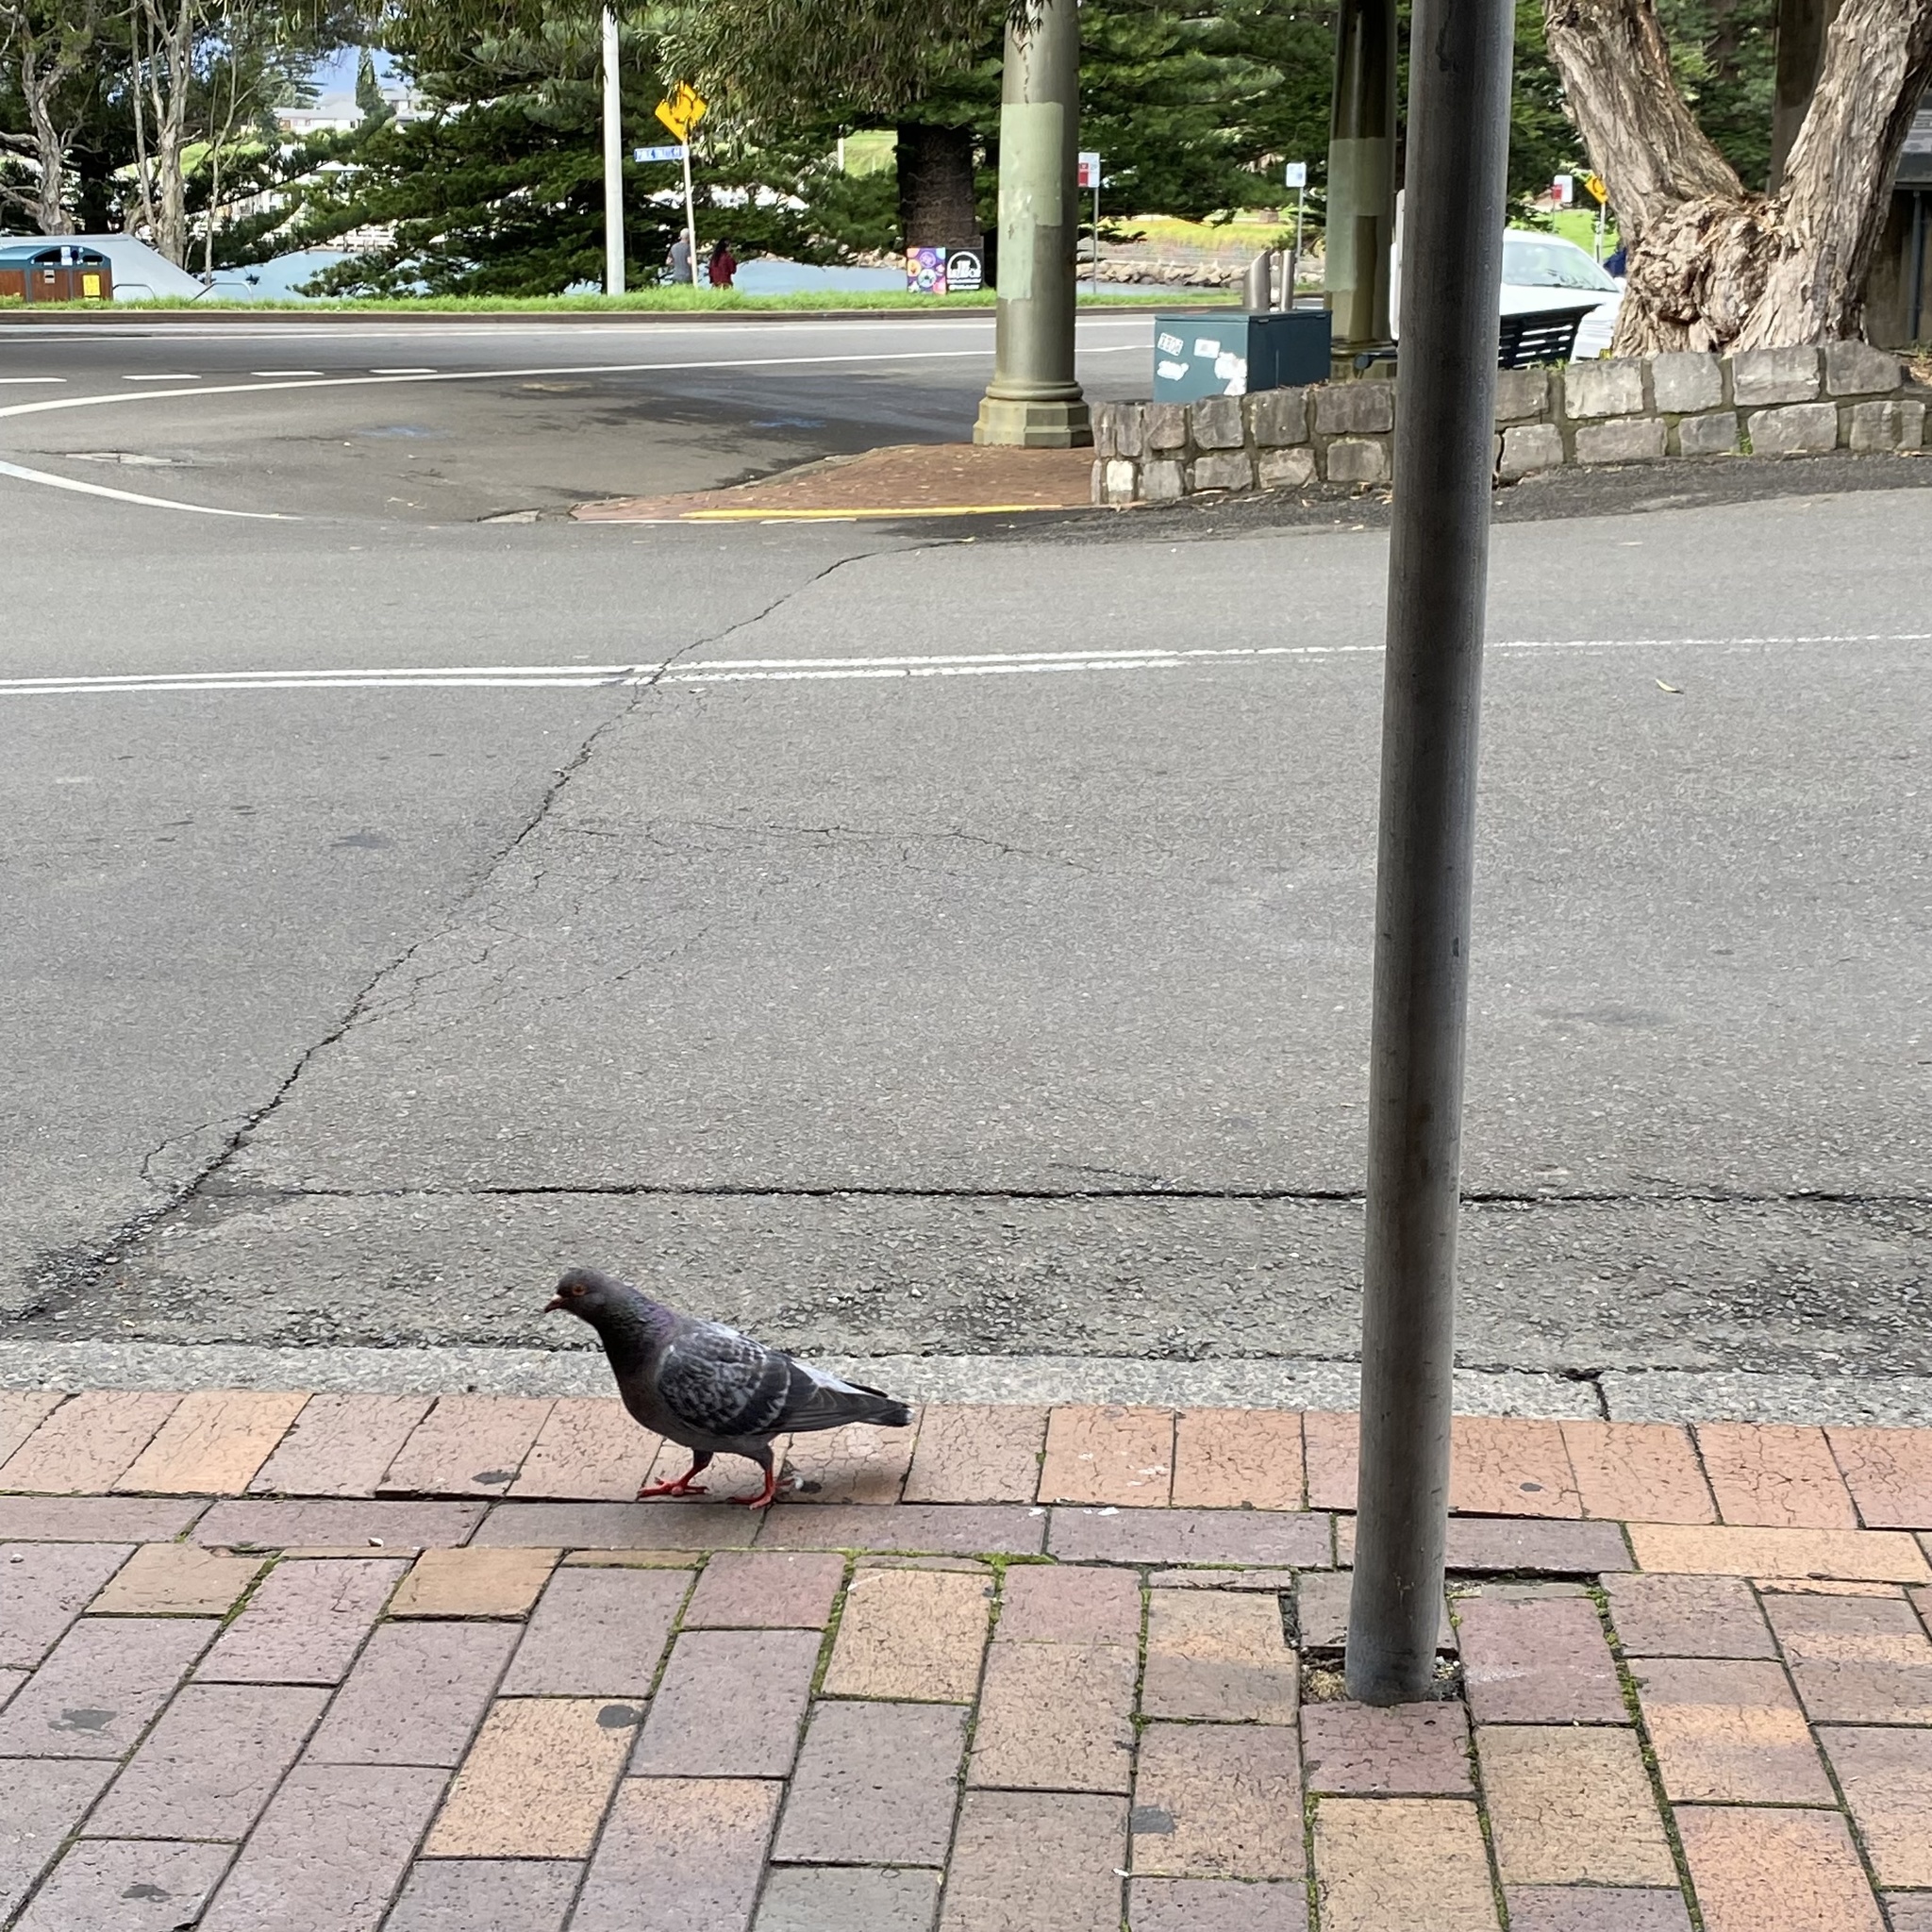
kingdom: Animalia
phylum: Chordata
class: Aves
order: Columbiformes
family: Columbidae
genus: Columba
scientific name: Columba livia
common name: Rock pigeon
